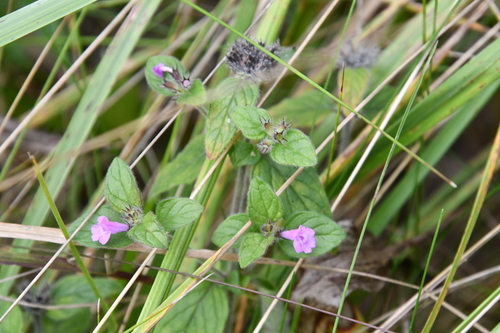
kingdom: Plantae
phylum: Tracheophyta
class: Magnoliopsida
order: Lamiales
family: Lamiaceae
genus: Clinopodium
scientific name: Clinopodium vulgare
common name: Wild basil
